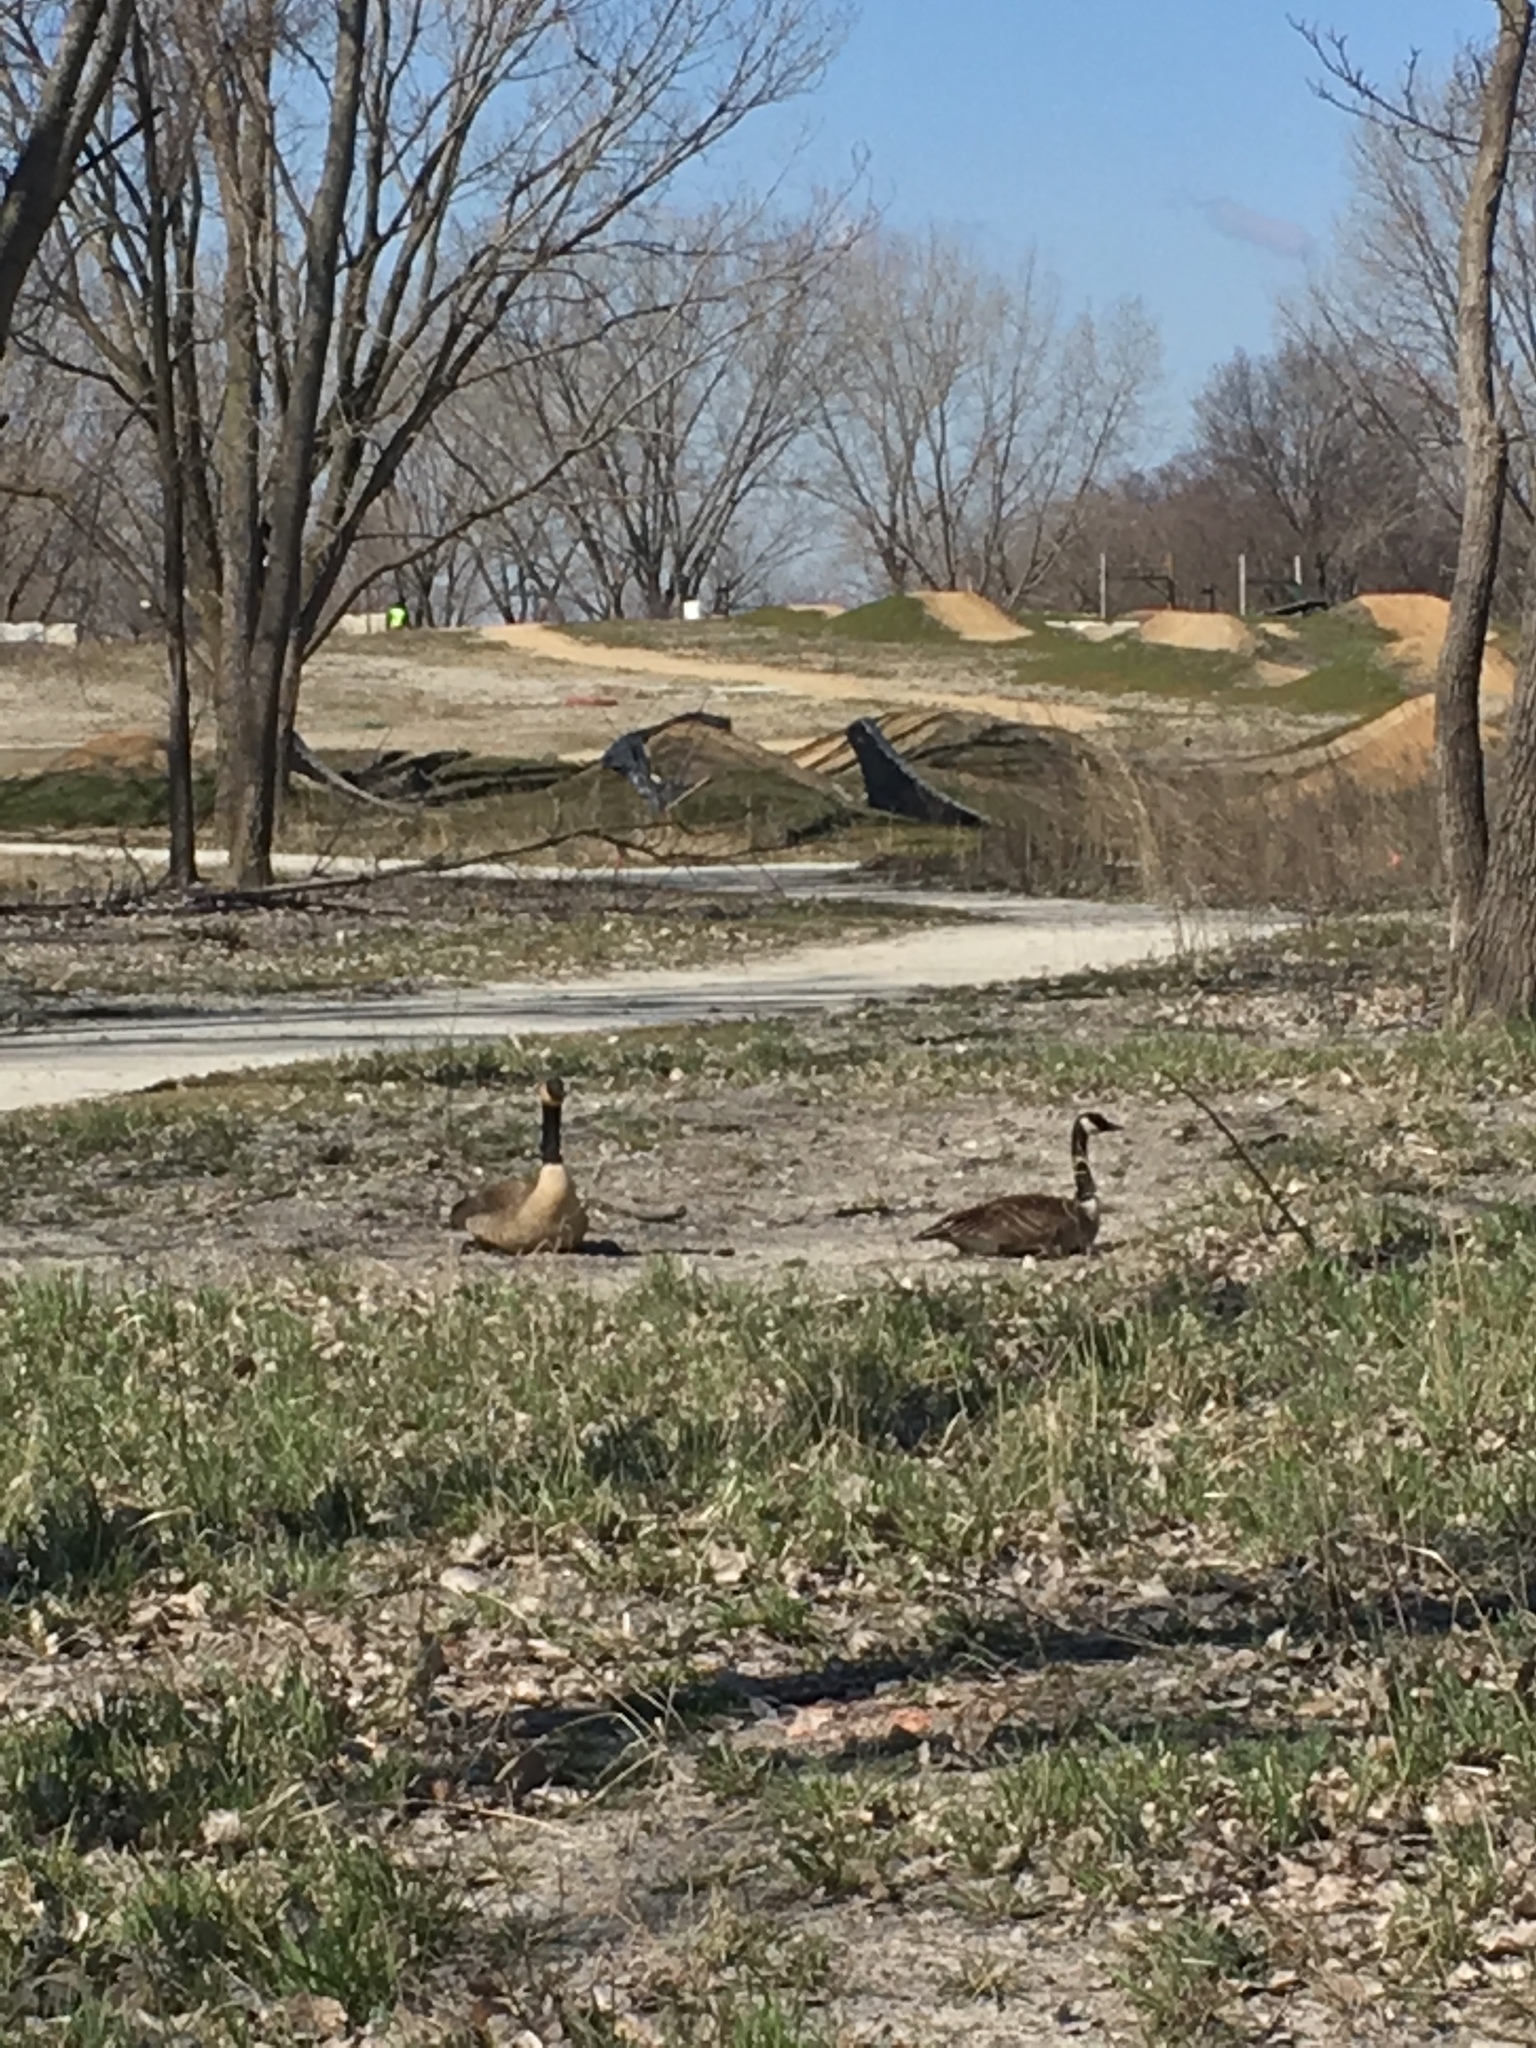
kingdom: Animalia
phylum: Chordata
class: Aves
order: Anseriformes
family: Anatidae
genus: Branta
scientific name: Branta canadensis
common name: Canada goose
